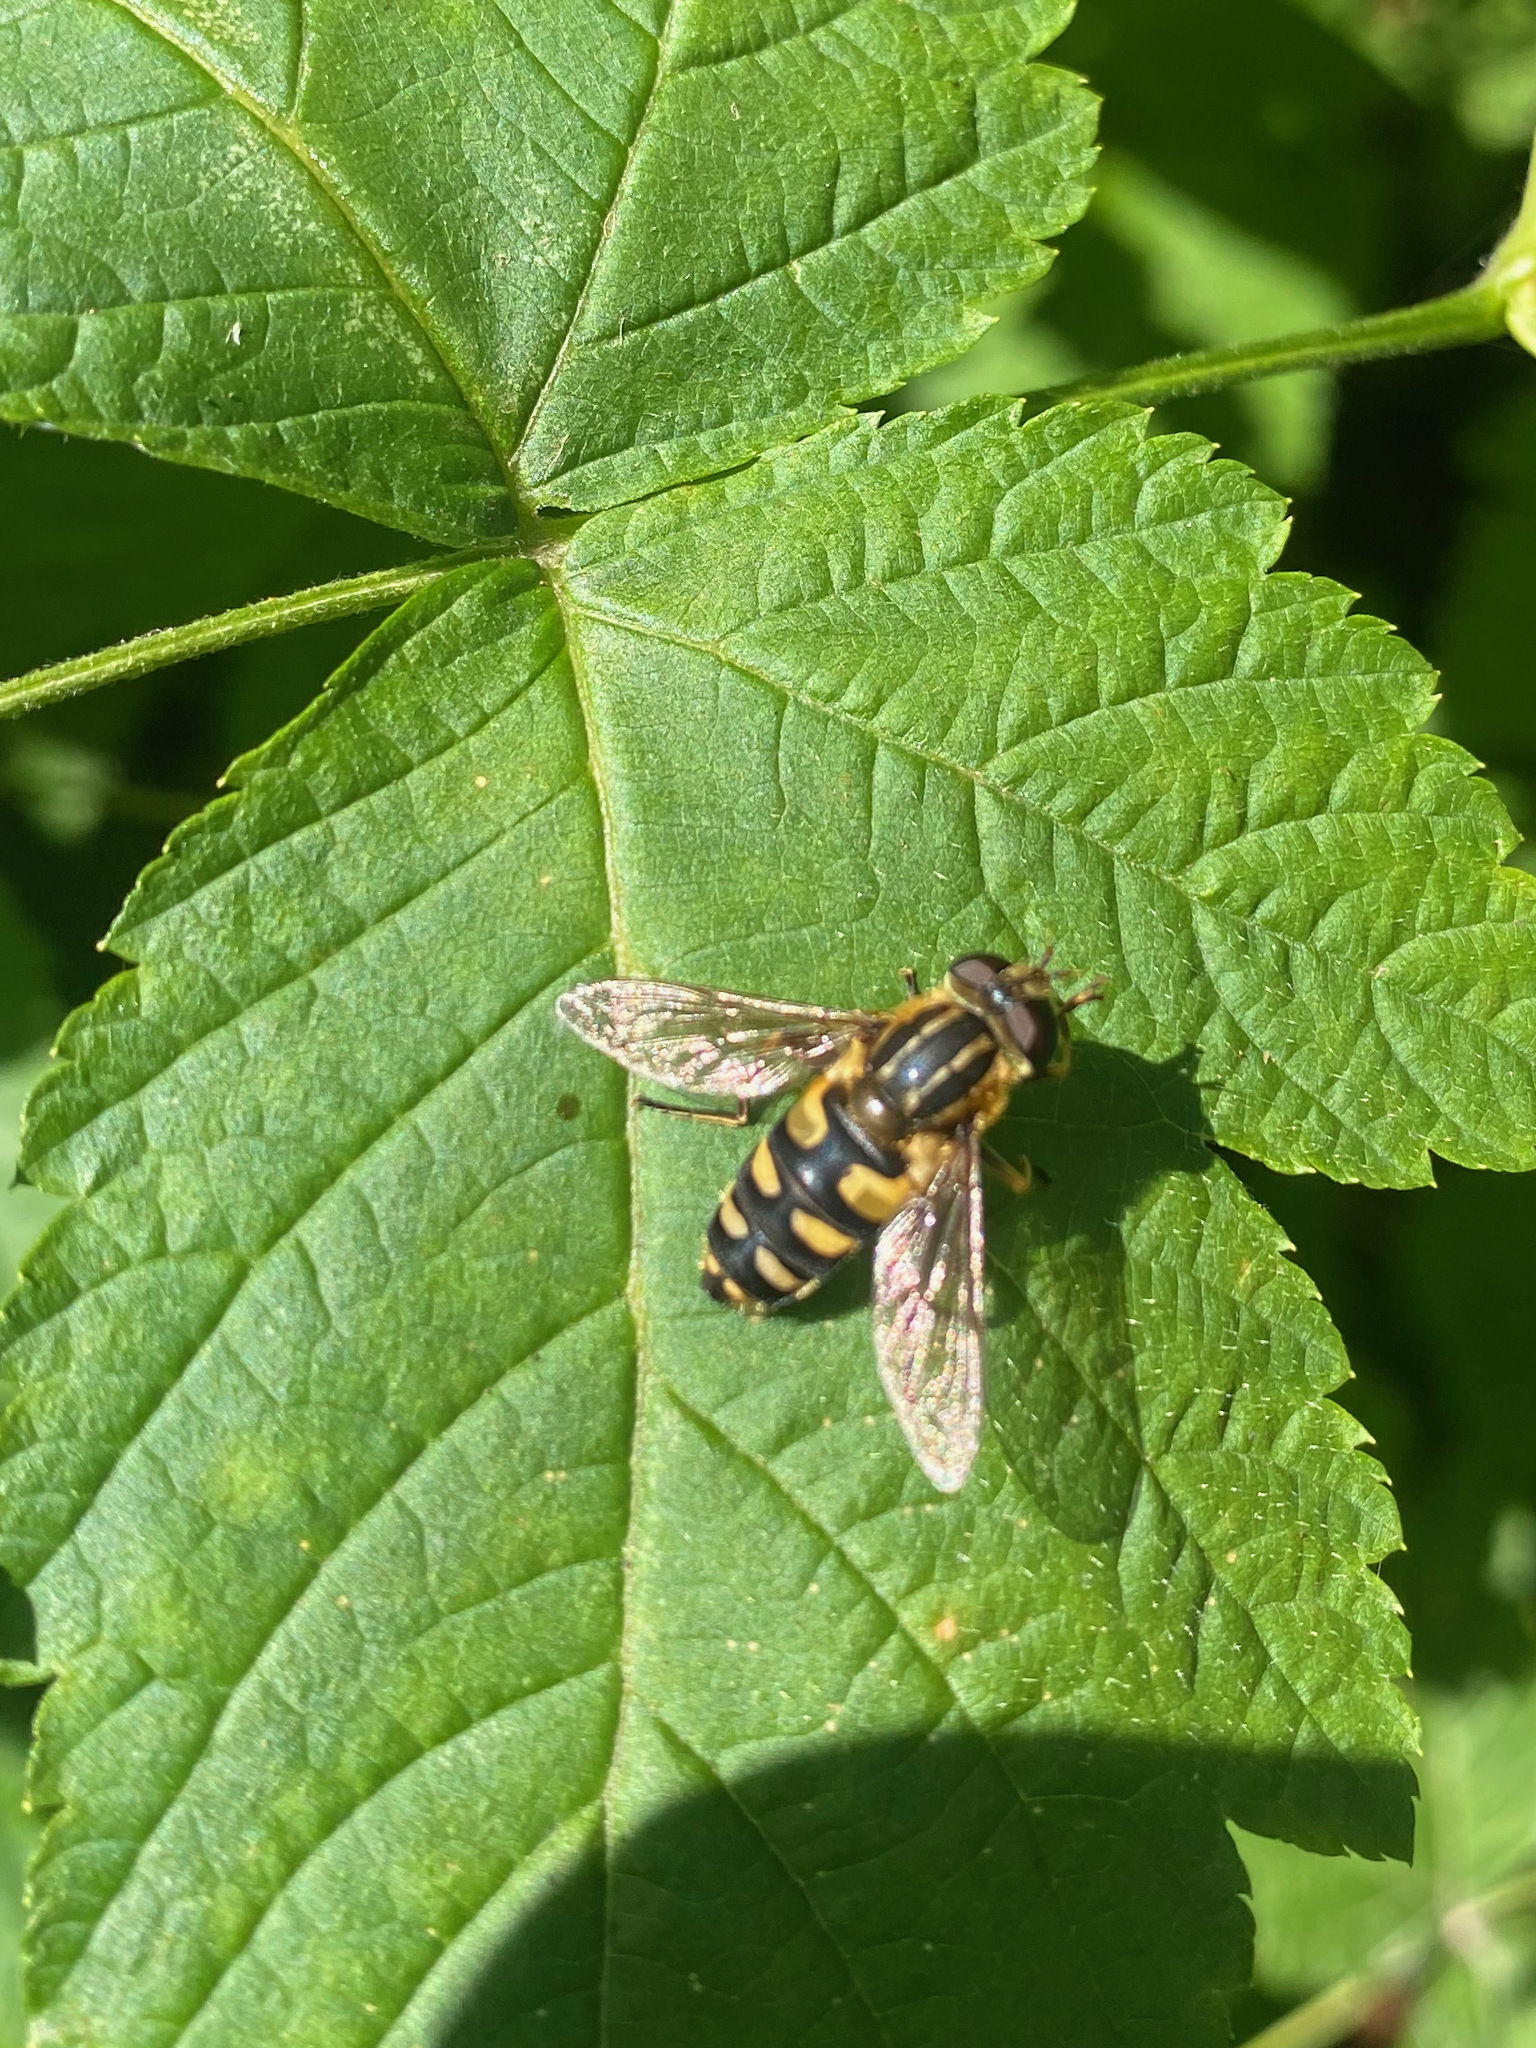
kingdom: Animalia
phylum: Arthropoda
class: Insecta
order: Diptera
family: Syrphidae
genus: Helophilus
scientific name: Helophilus obscurus
